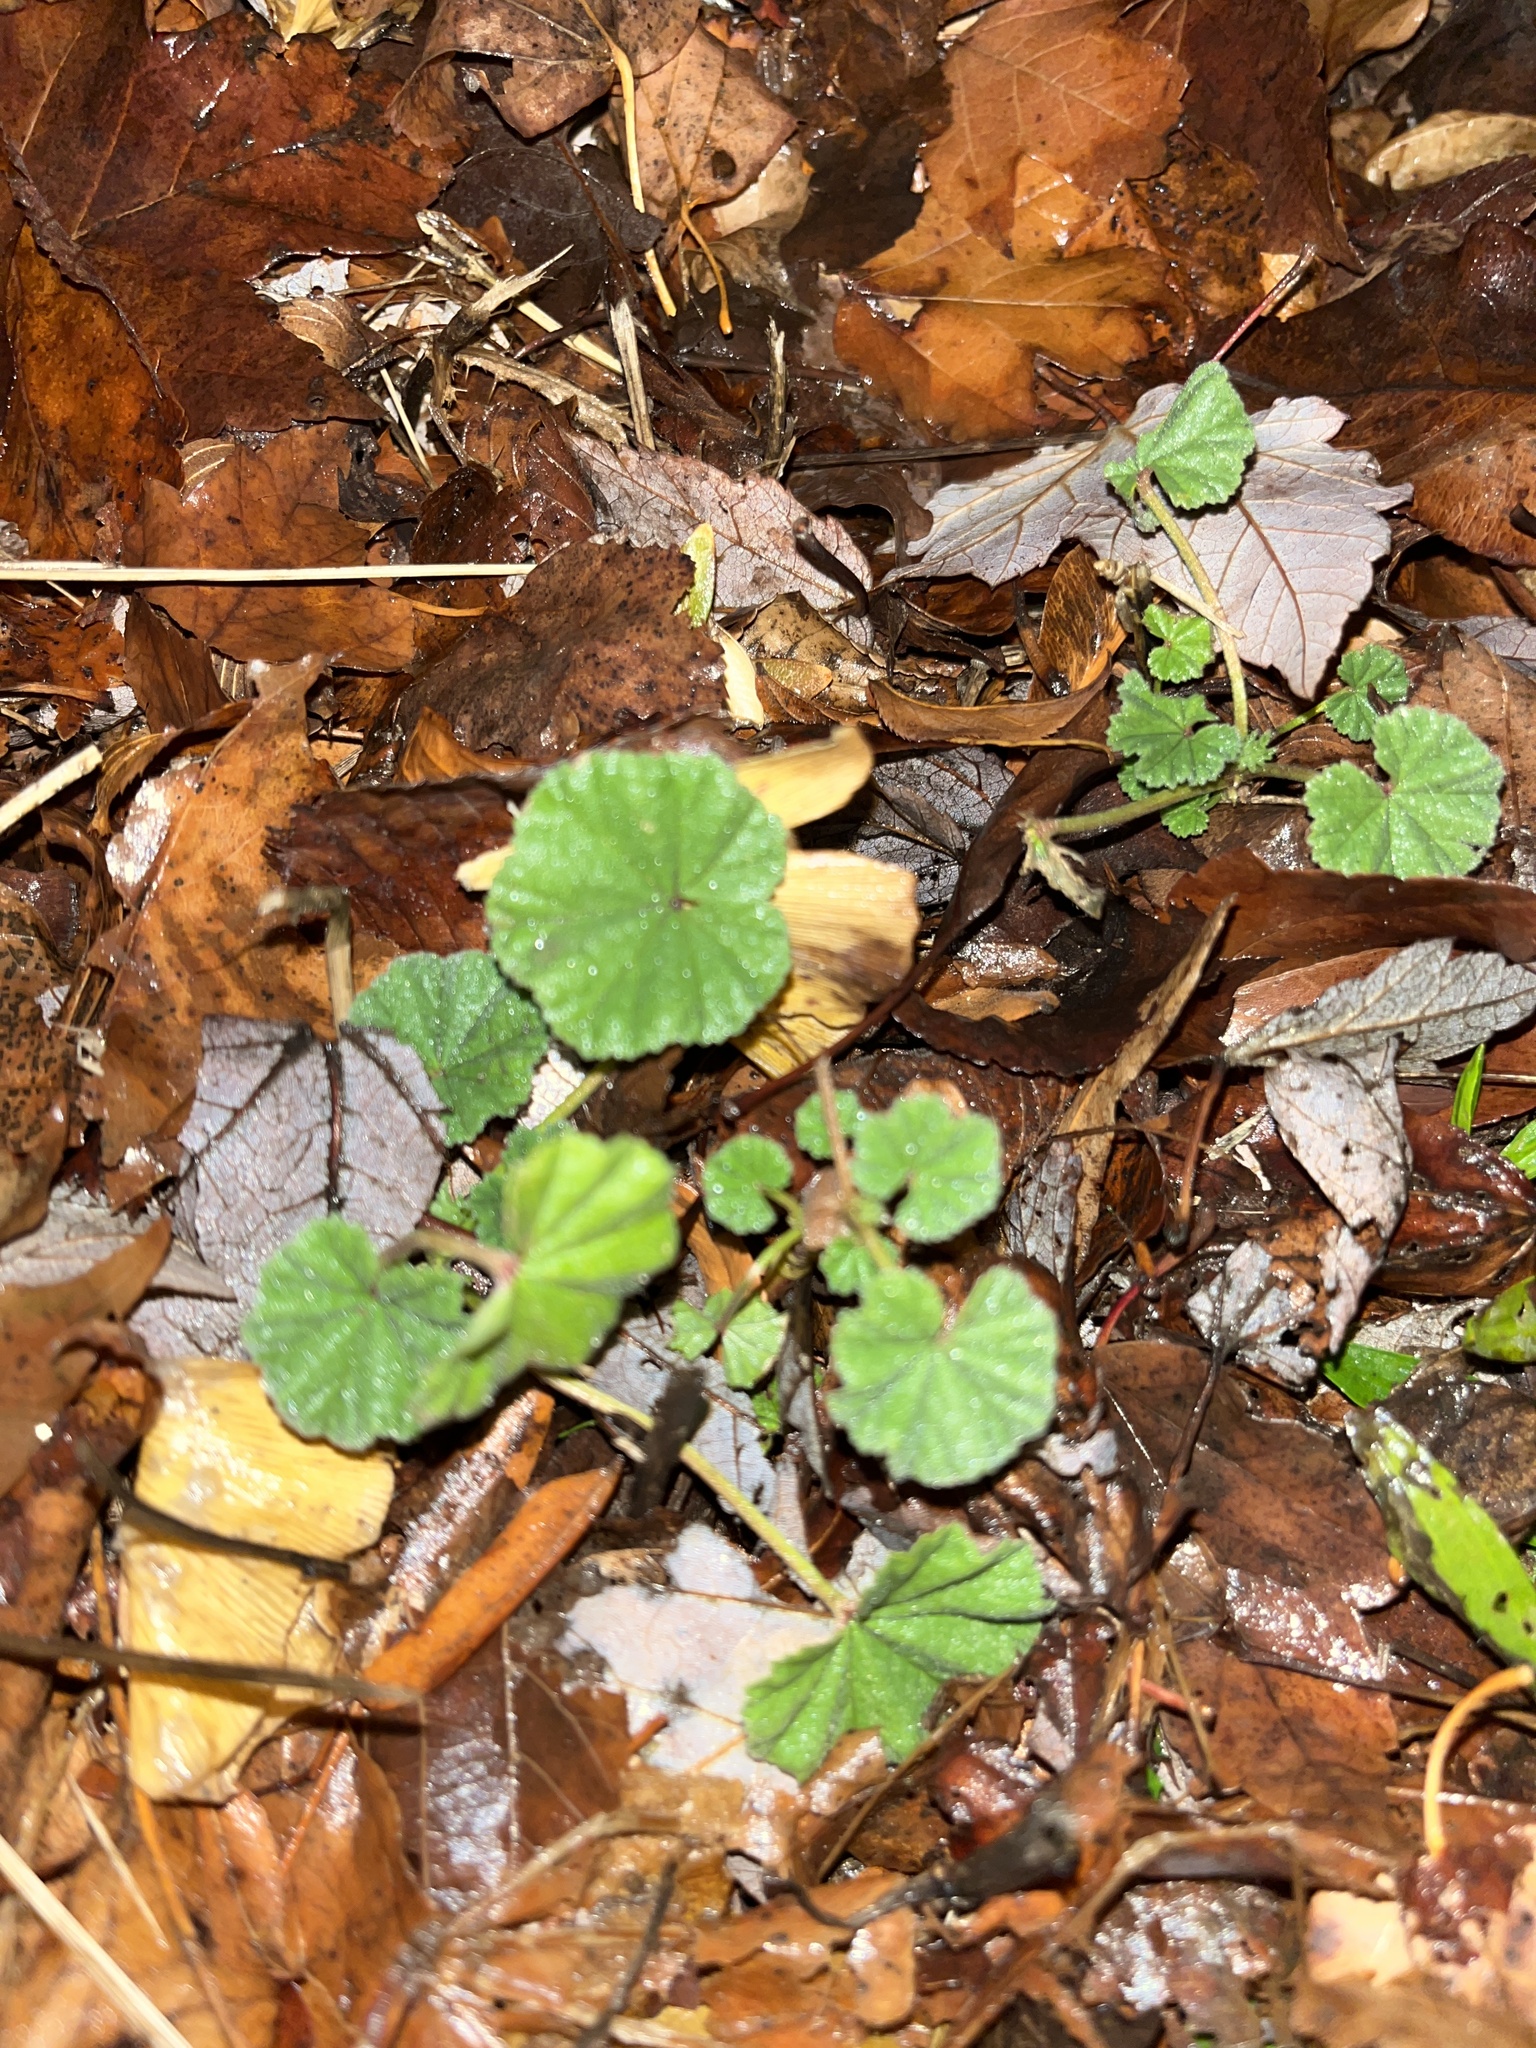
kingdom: Plantae
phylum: Tracheophyta
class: Magnoliopsida
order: Malvales
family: Malvaceae
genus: Malva
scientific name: Malva
